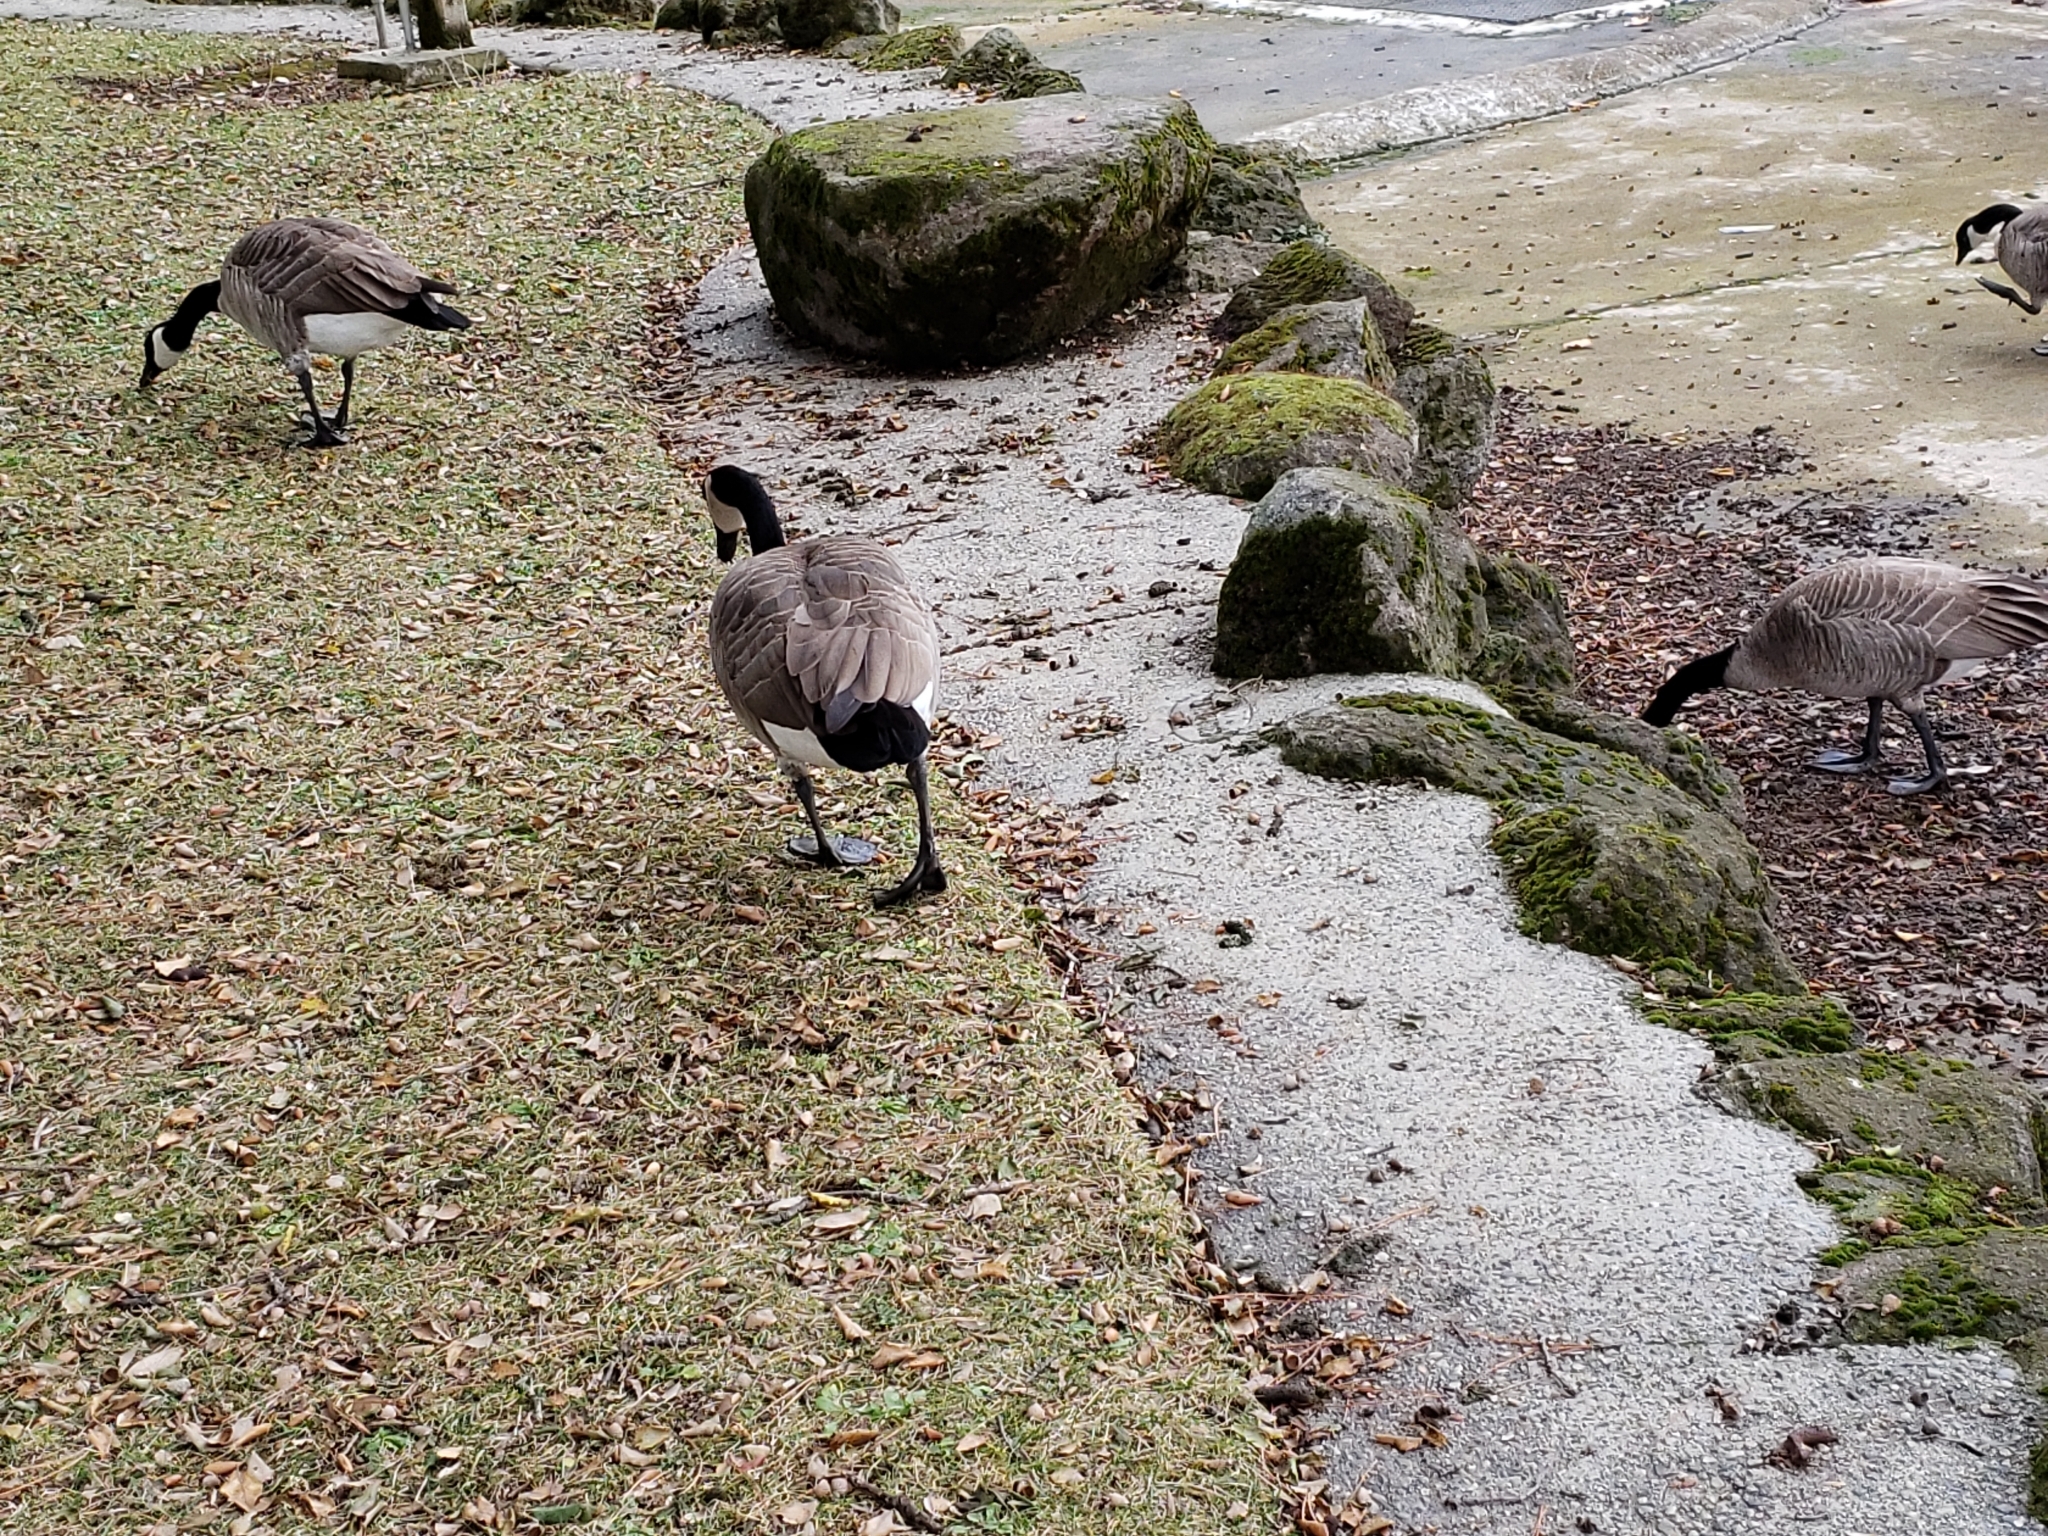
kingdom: Animalia
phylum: Chordata
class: Aves
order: Anseriformes
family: Anatidae
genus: Branta
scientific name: Branta canadensis
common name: Canada goose
